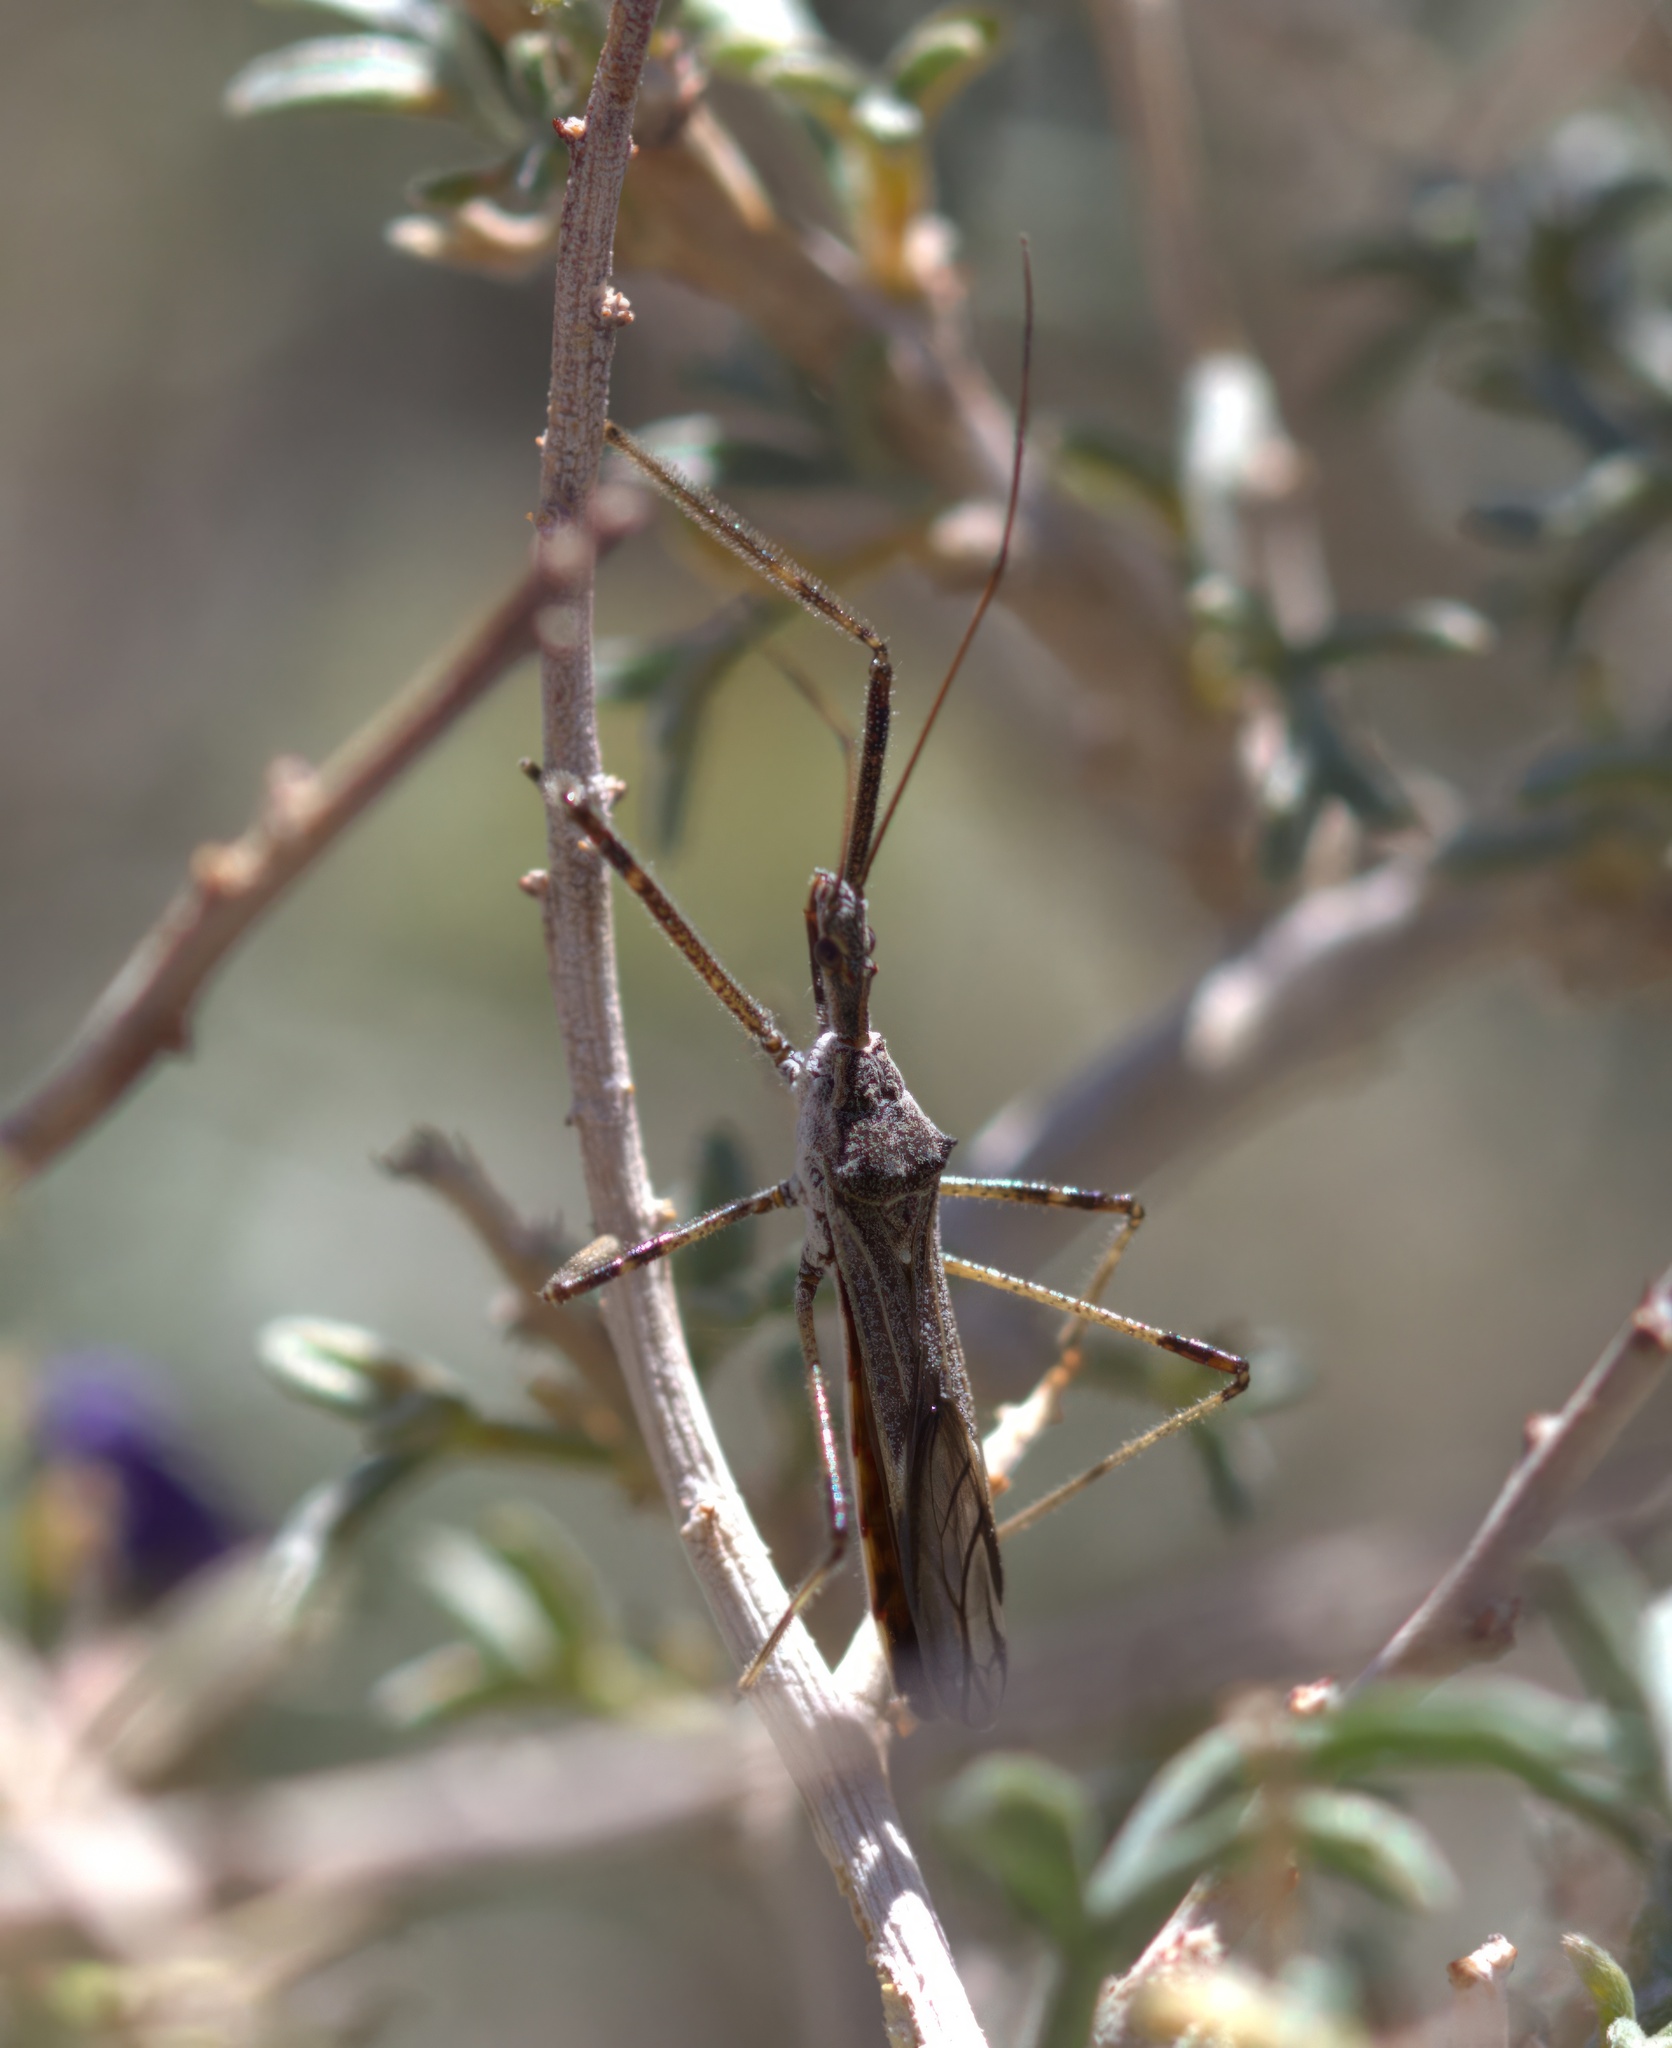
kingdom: Animalia
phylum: Arthropoda
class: Insecta
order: Hemiptera
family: Reduviidae
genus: Zelus
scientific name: Zelus tetracanthus
